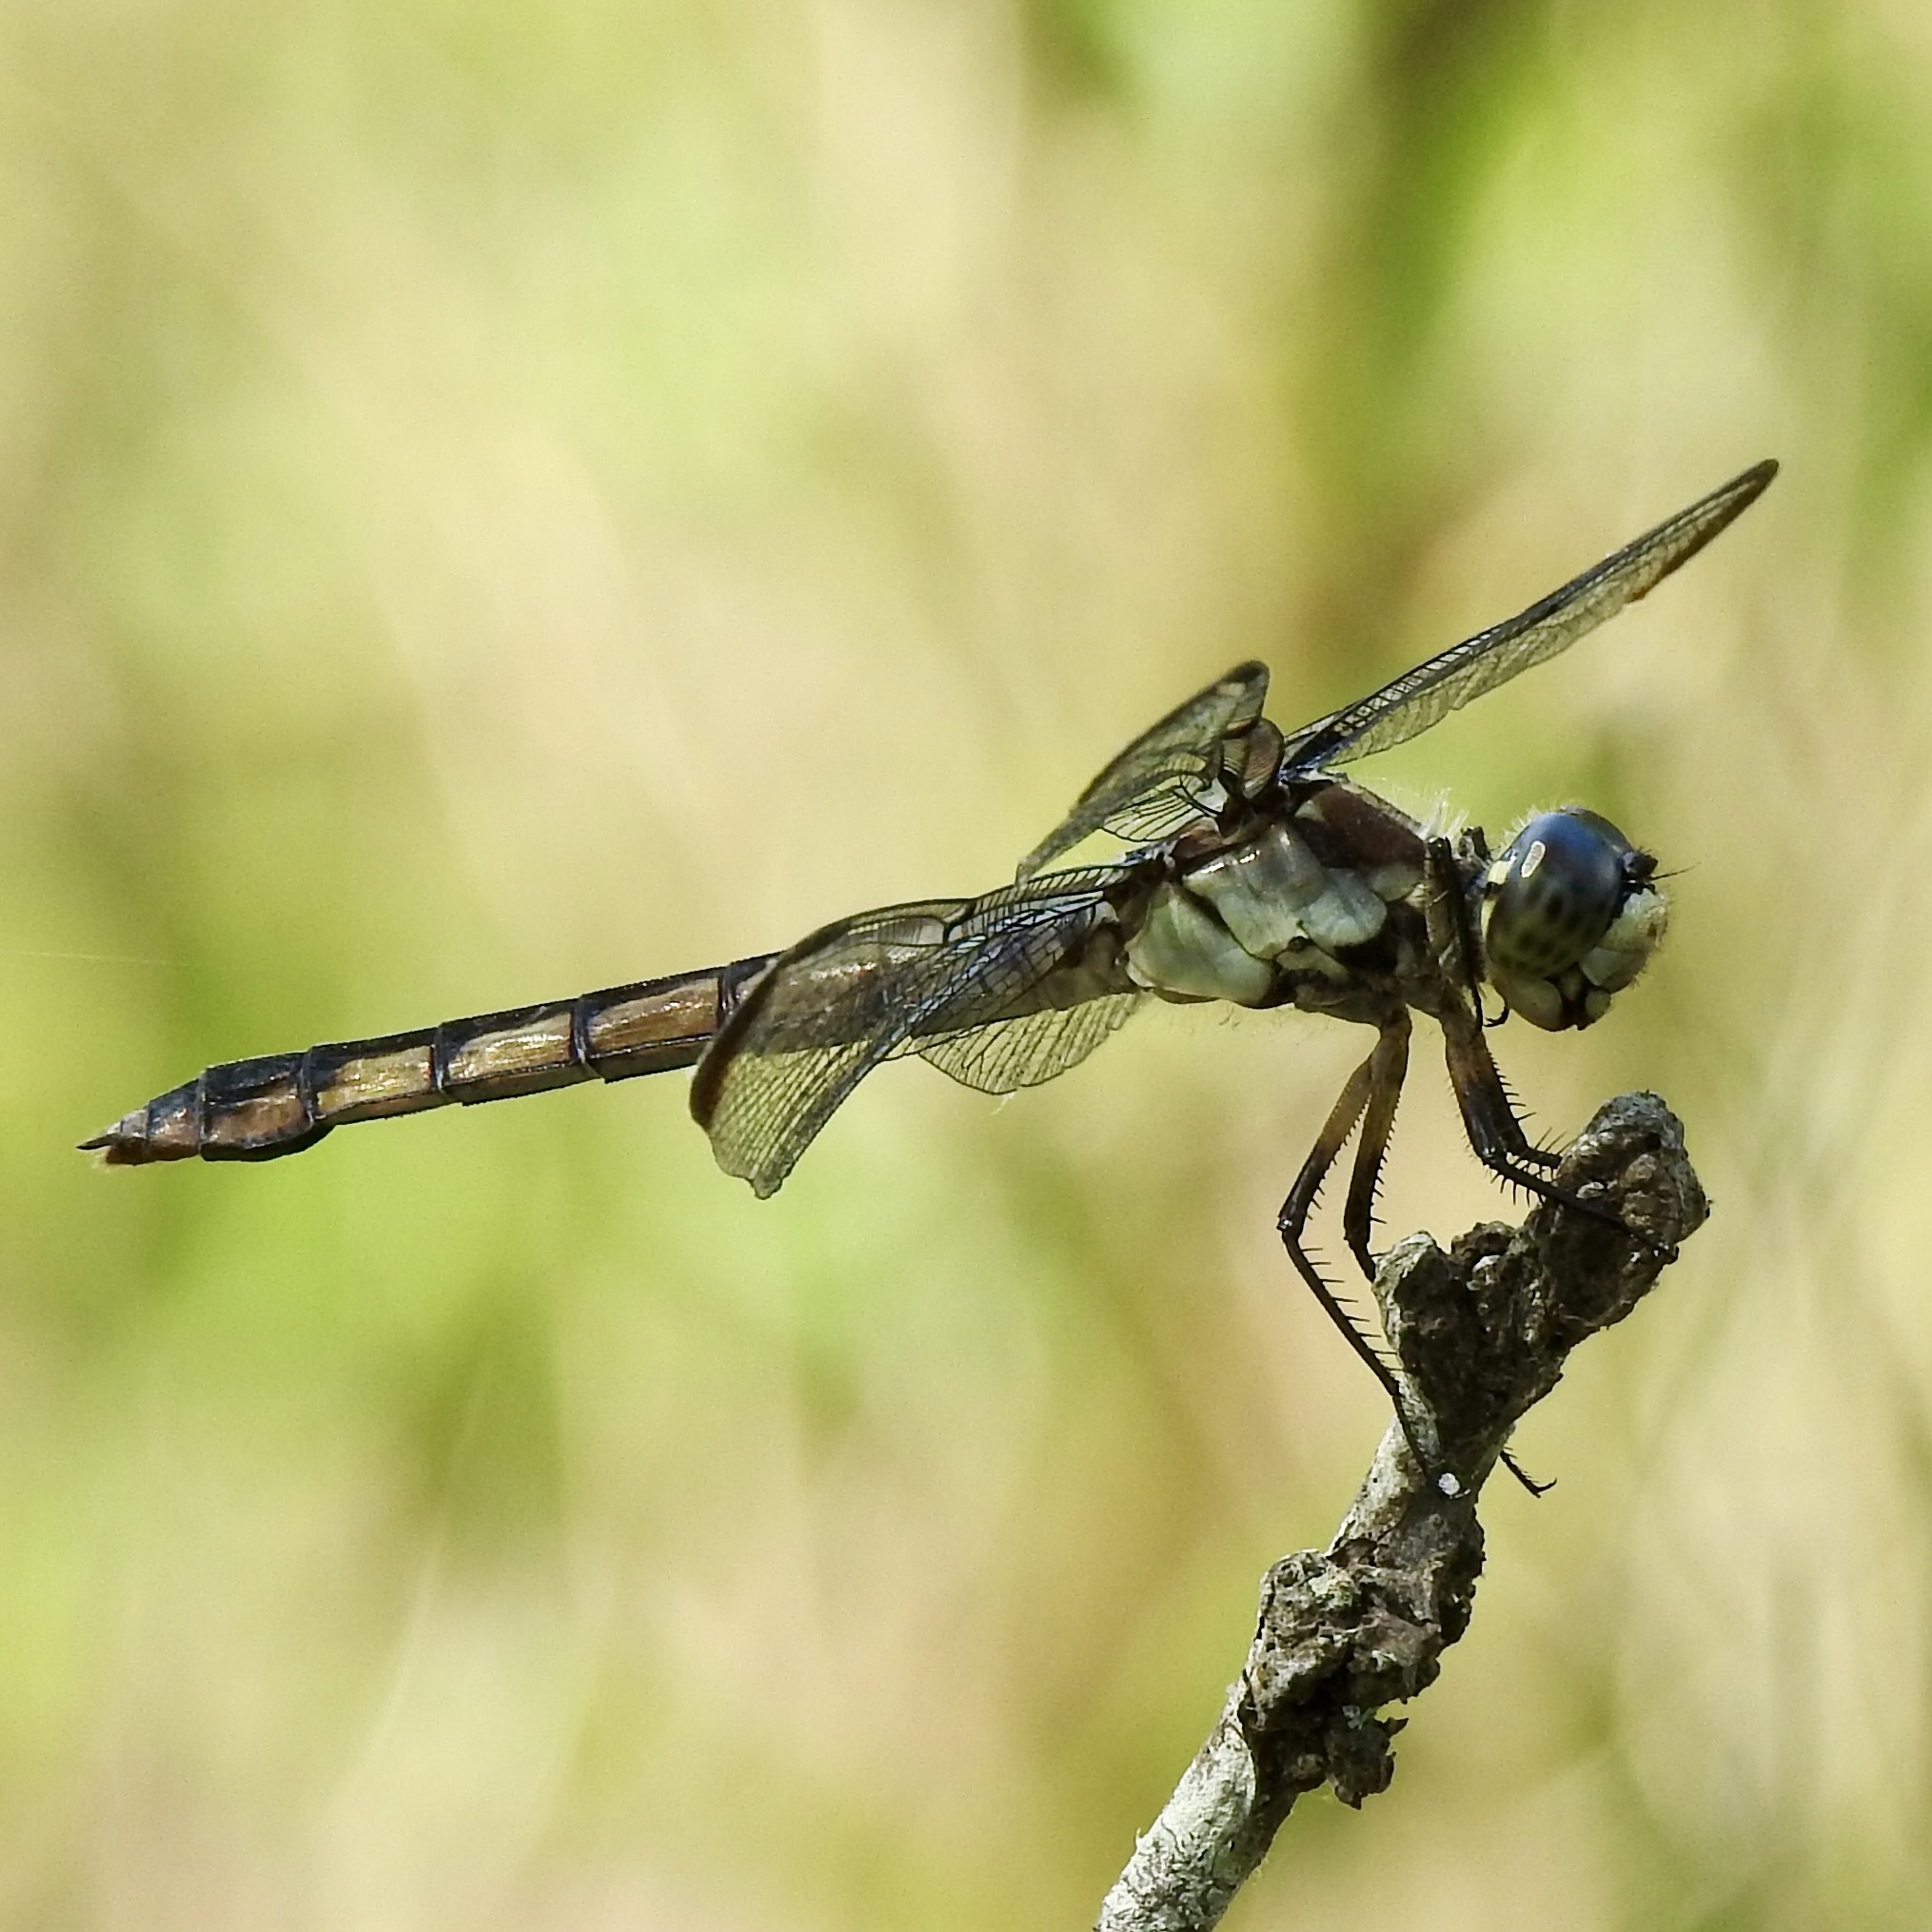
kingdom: Animalia
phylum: Arthropoda
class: Insecta
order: Odonata
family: Libellulidae
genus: Libellula
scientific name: Libellula vibrans
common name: Great blue skimmer
